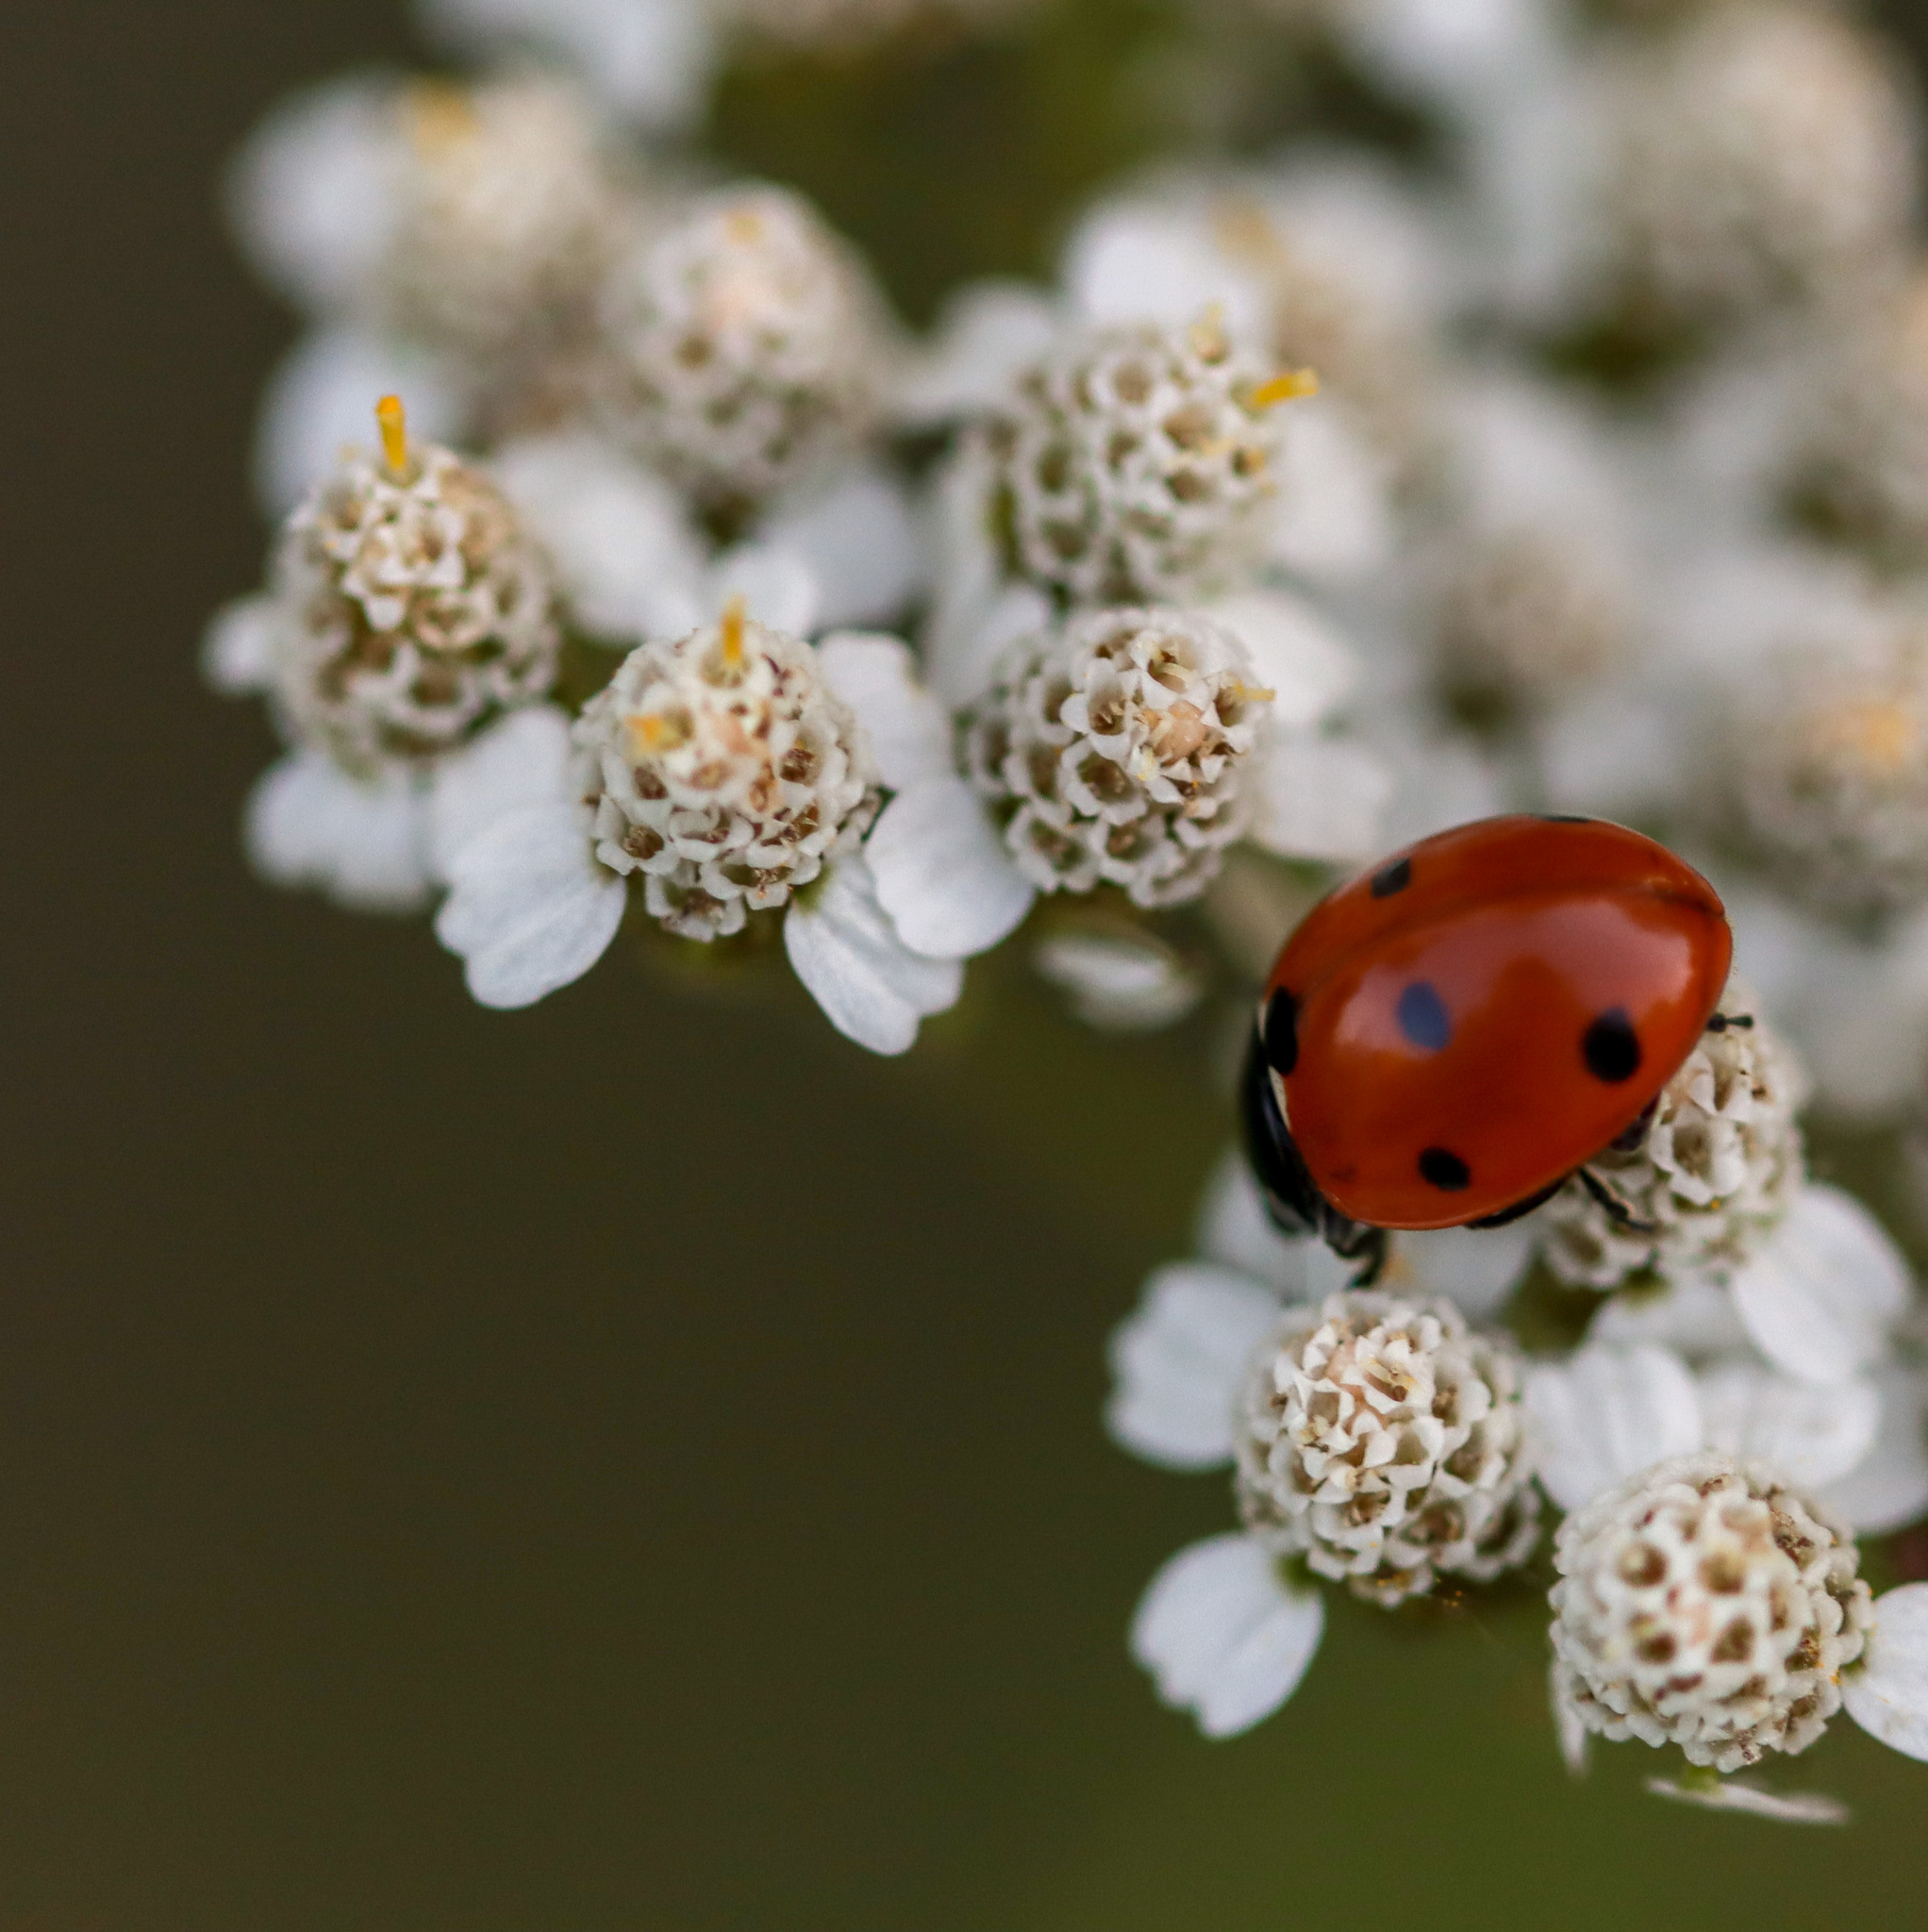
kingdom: Animalia
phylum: Arthropoda
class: Insecta
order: Coleoptera
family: Coccinellidae
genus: Coccinella
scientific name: Coccinella septempunctata
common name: Sevenspotted lady beetle
